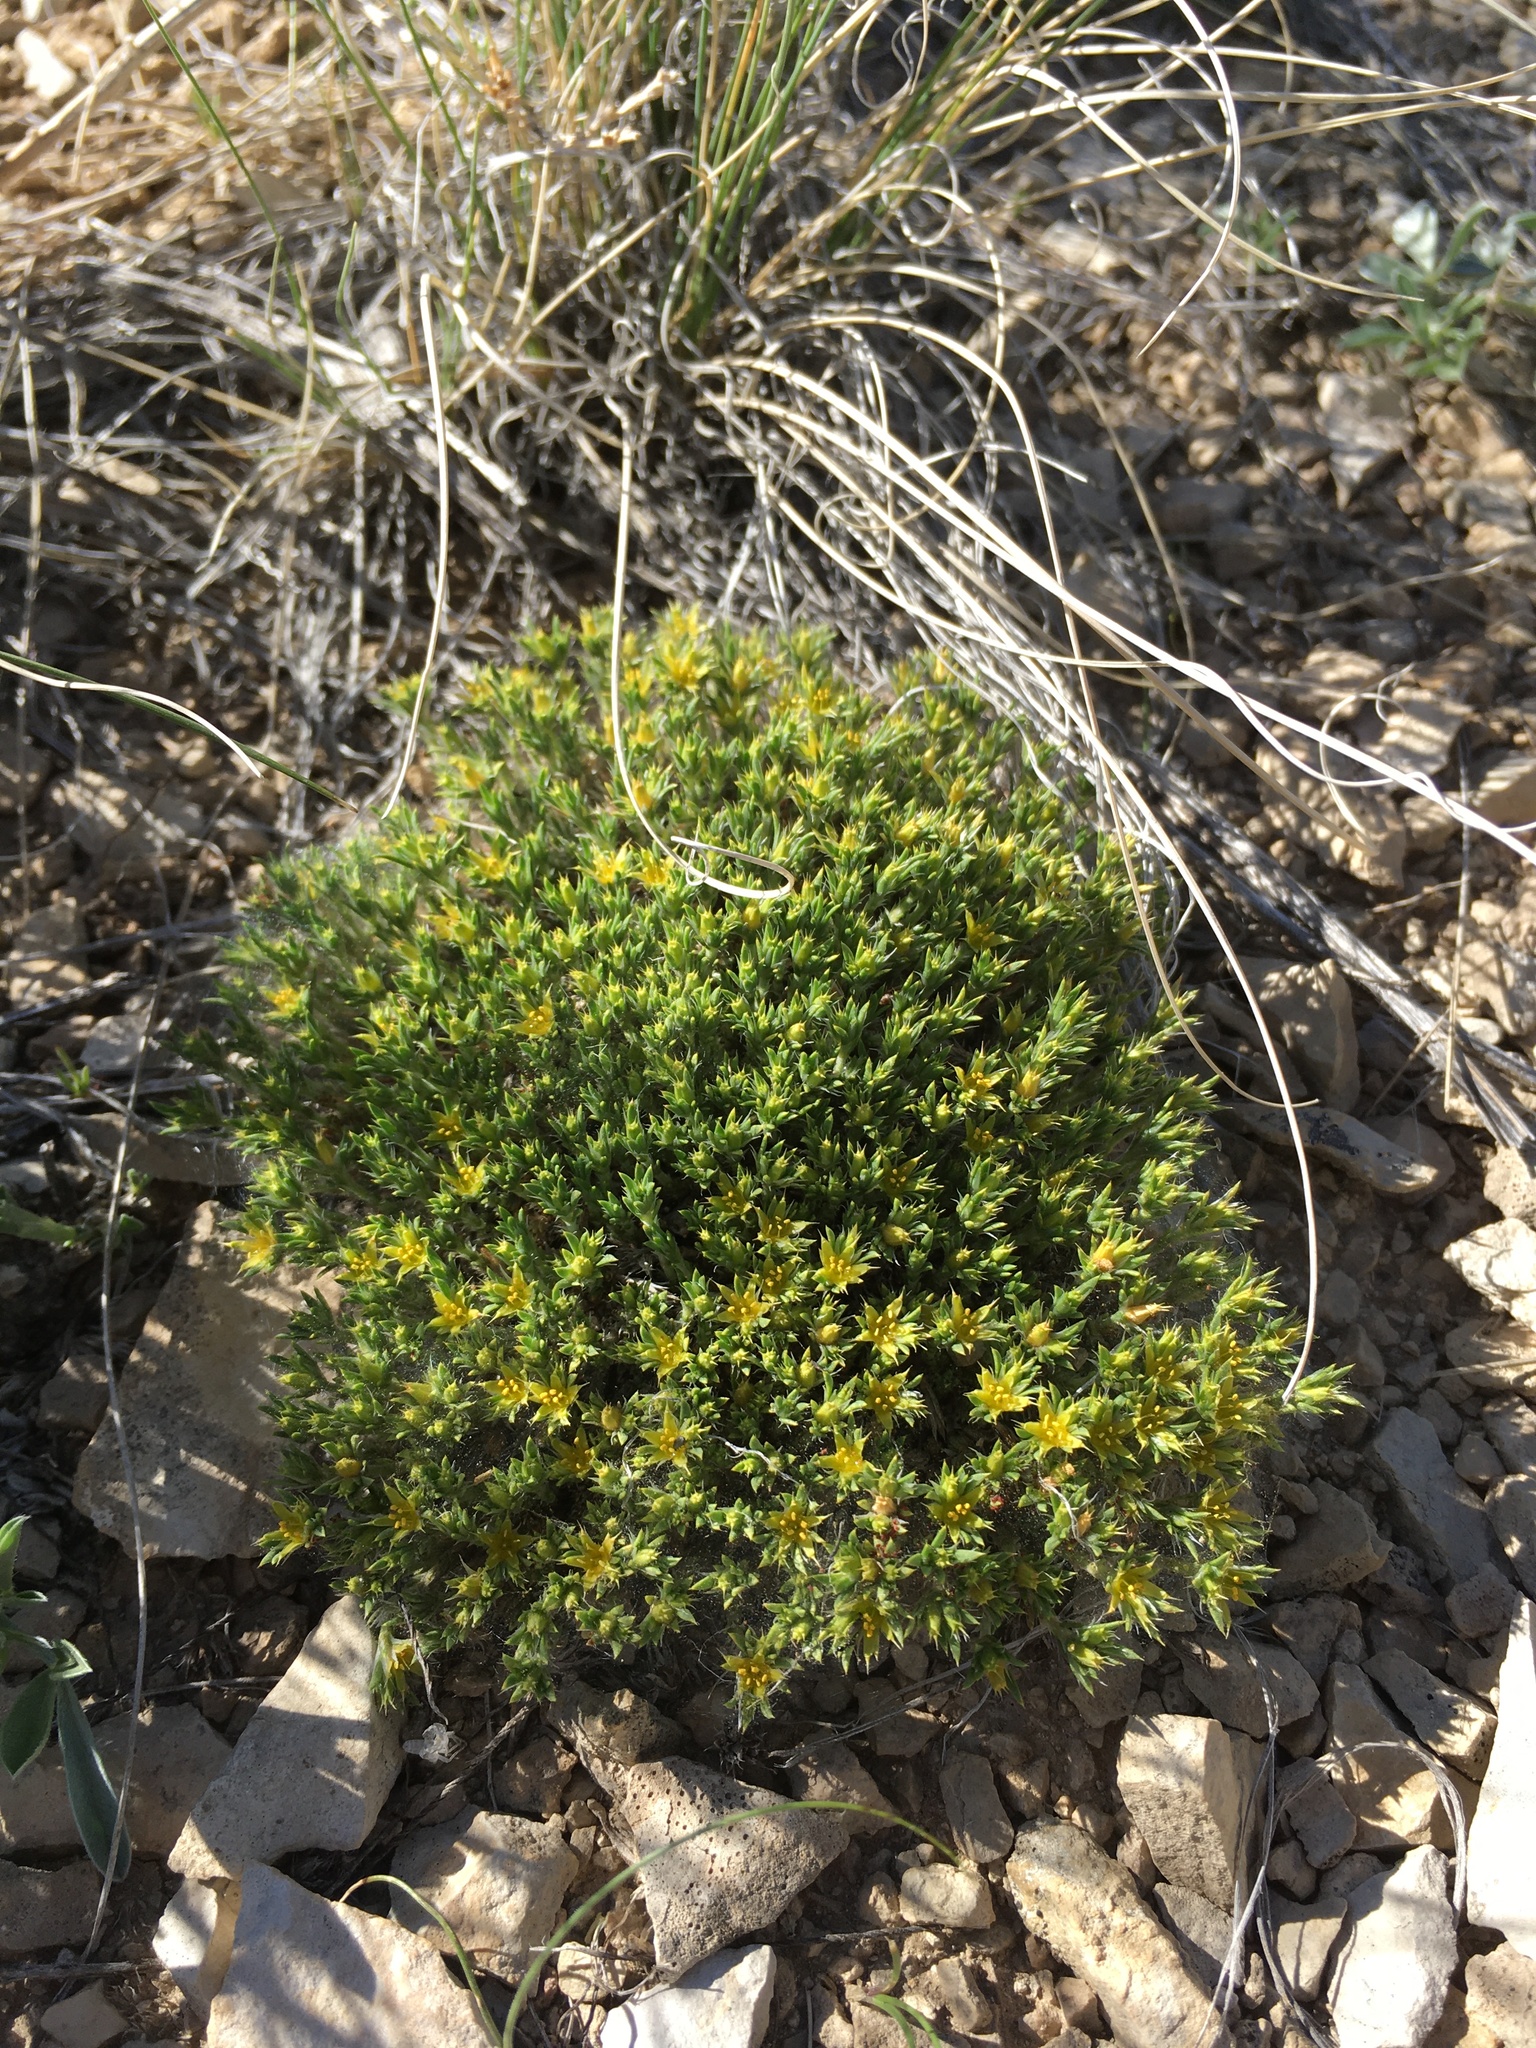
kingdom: Plantae
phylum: Tracheophyta
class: Magnoliopsida
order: Caryophyllales
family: Caryophyllaceae
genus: Paronychia
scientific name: Paronychia sessiliflora
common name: Creeping nailwort
